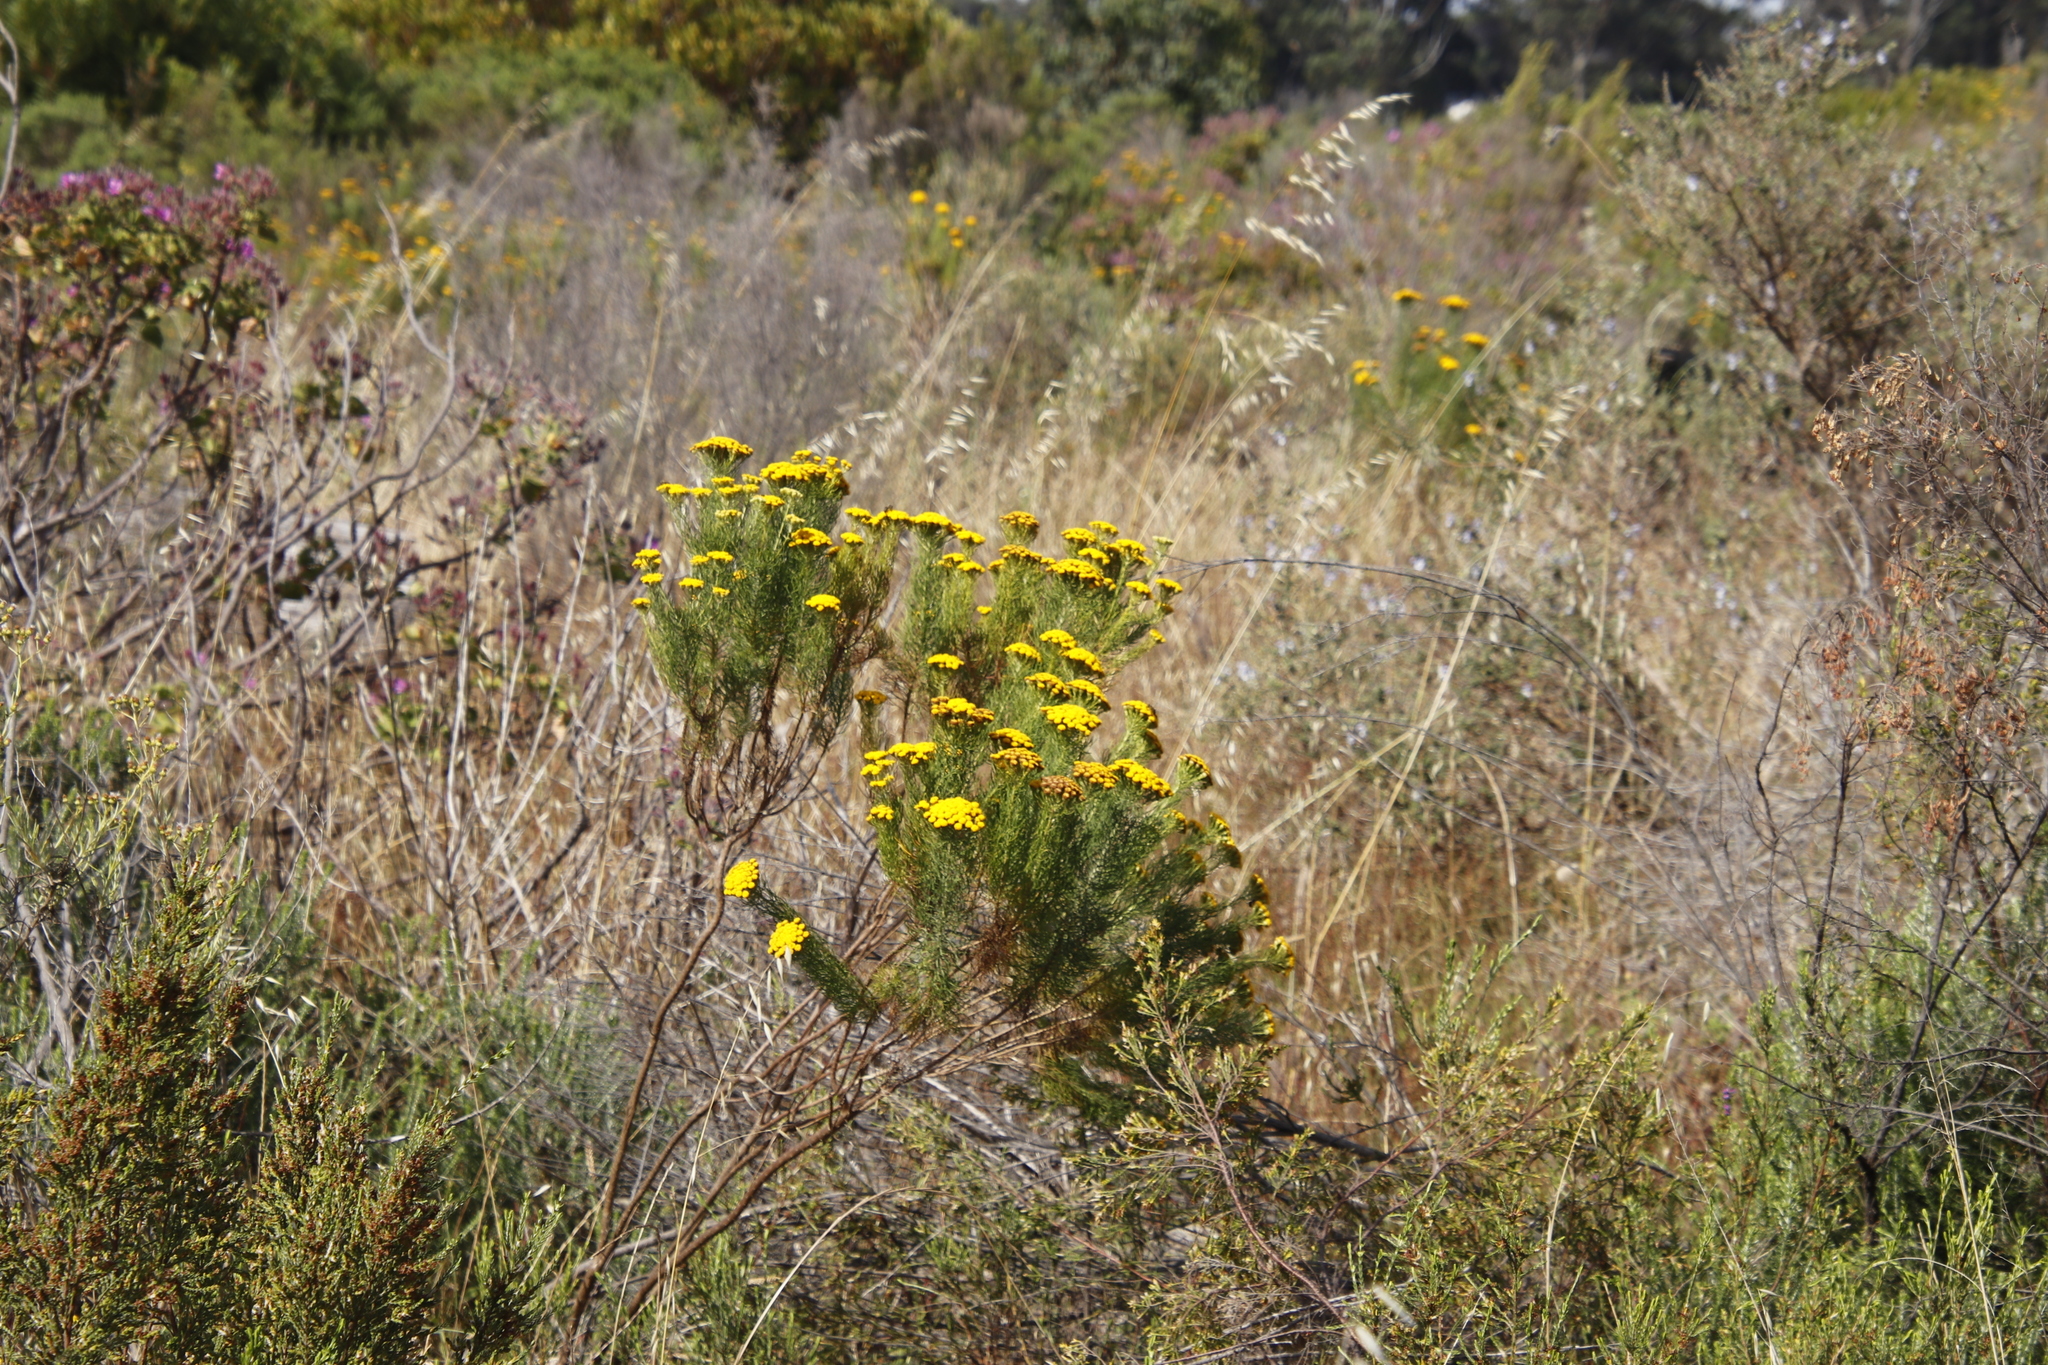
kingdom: Plantae
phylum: Tracheophyta
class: Magnoliopsida
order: Asterales
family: Asteraceae
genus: Athanasia
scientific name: Athanasia crithmifolia
